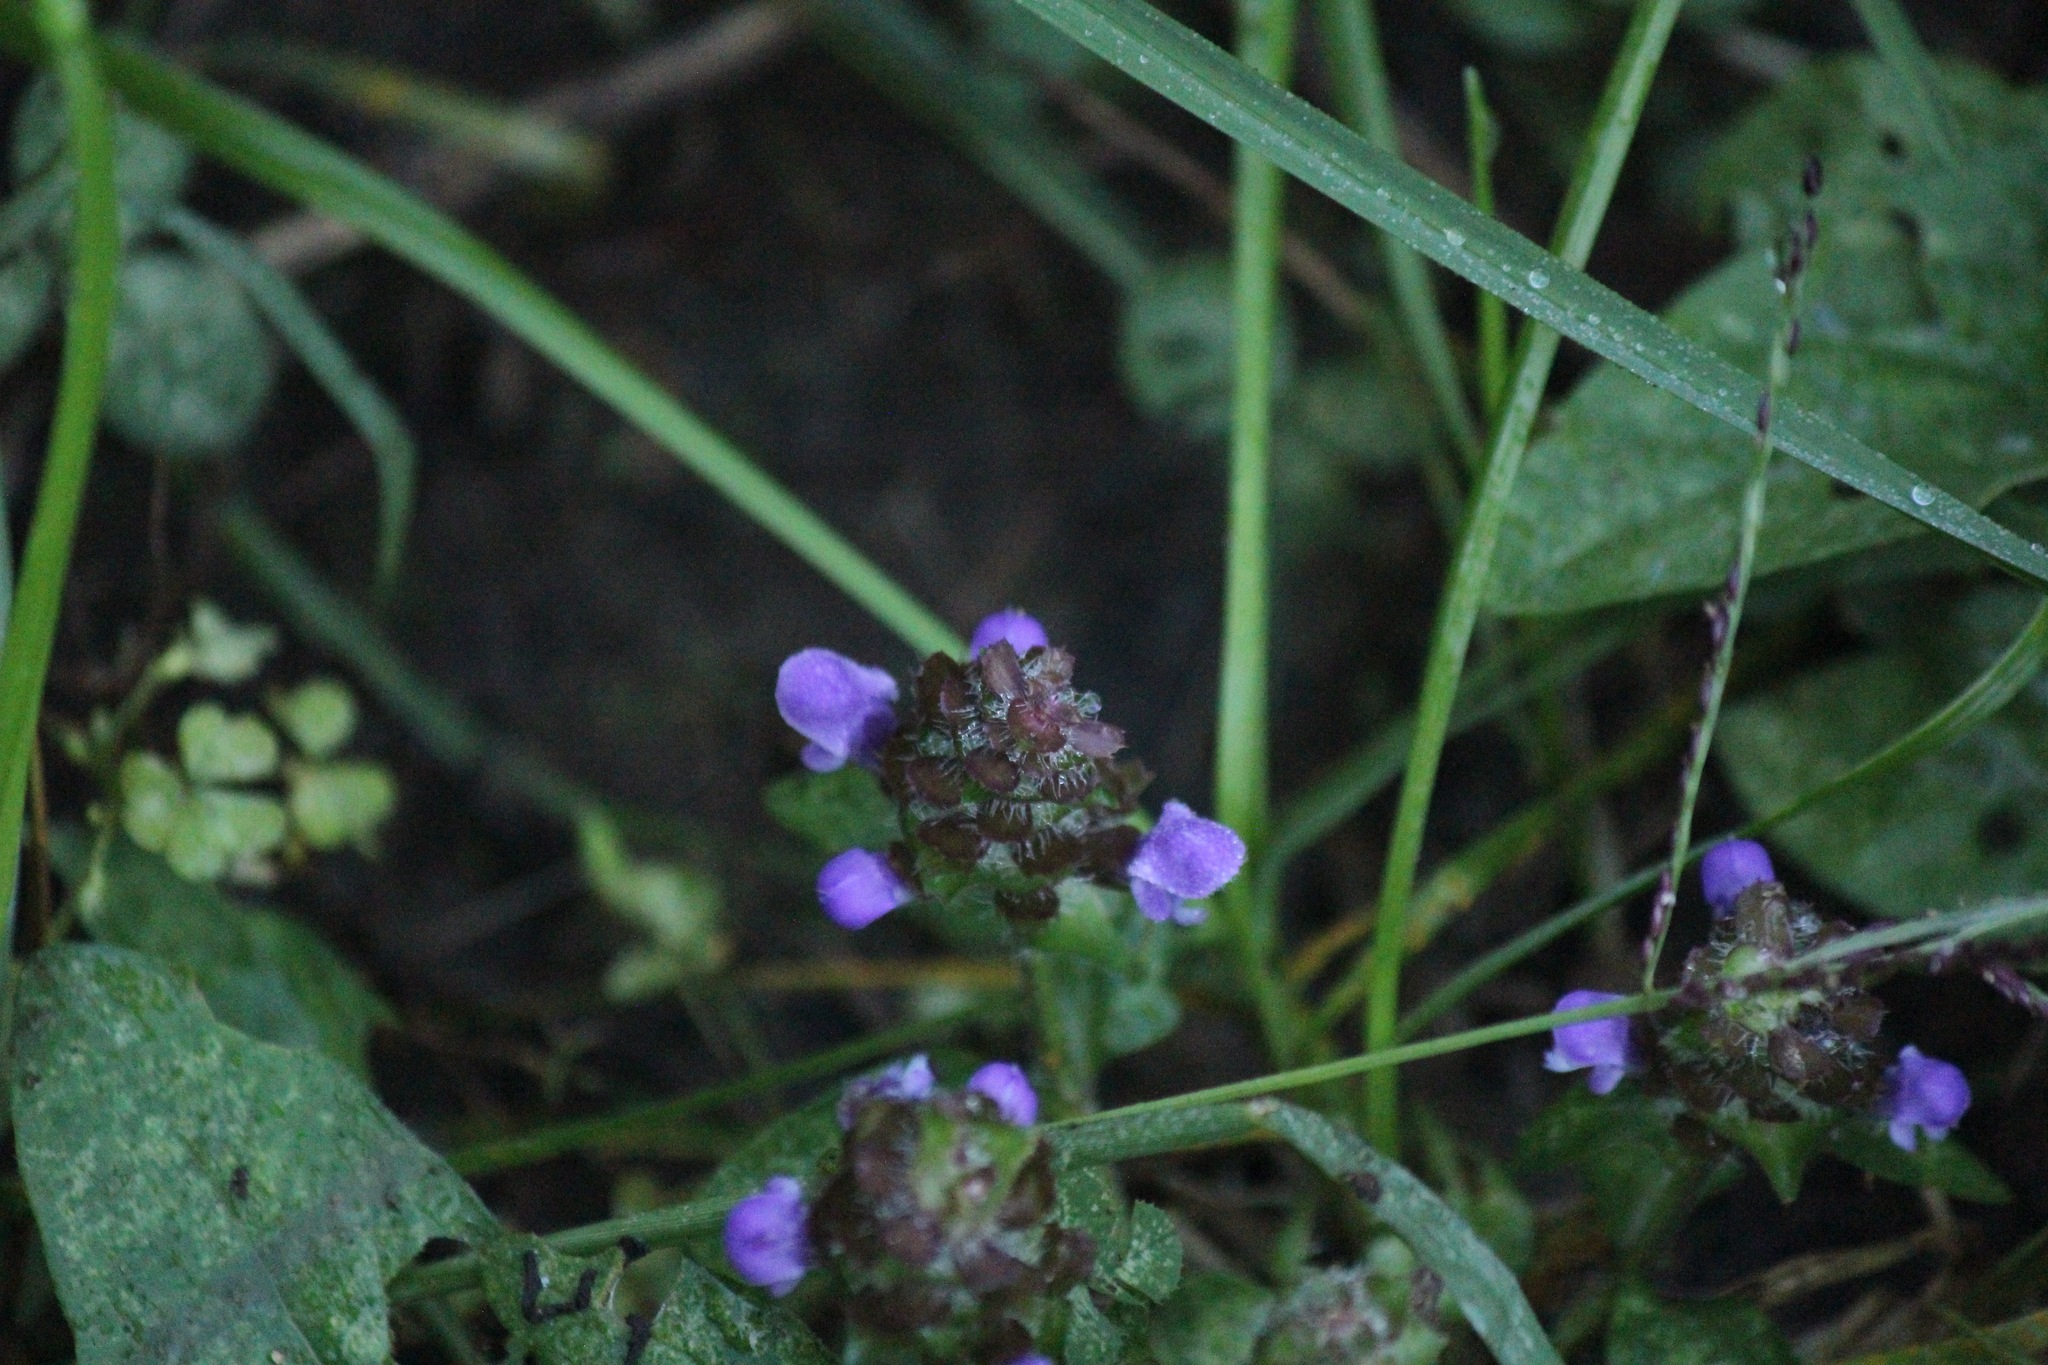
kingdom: Plantae
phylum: Tracheophyta
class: Magnoliopsida
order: Lamiales
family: Lamiaceae
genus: Prunella
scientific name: Prunella vulgaris
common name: Heal-all
